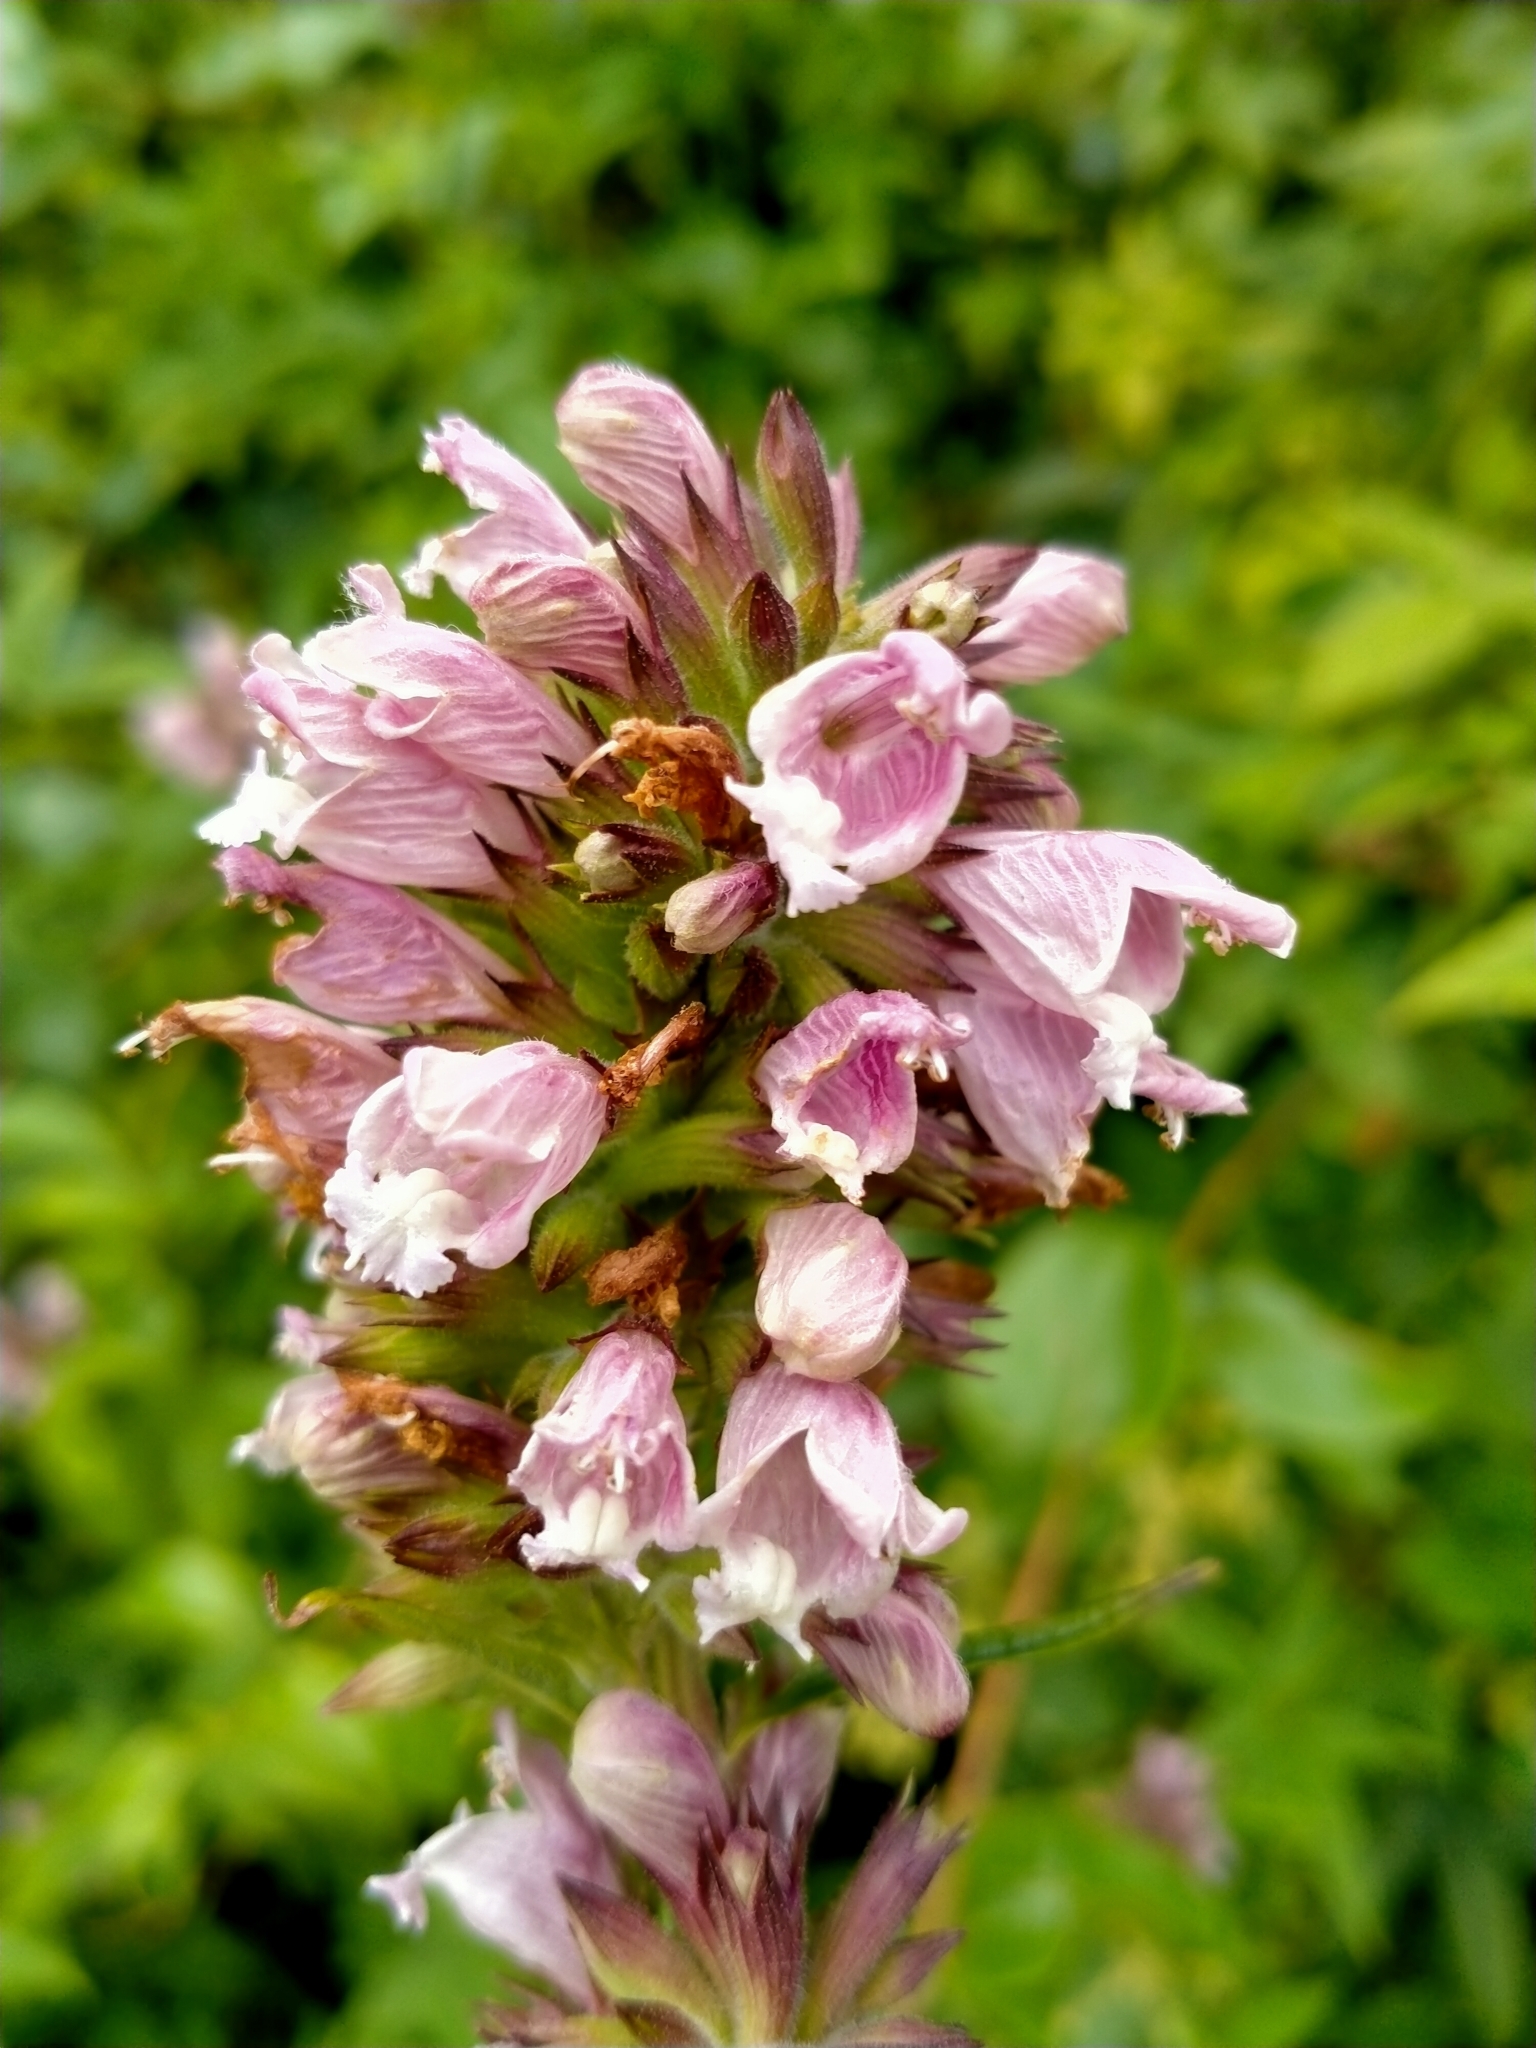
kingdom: Plantae
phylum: Tracheophyta
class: Magnoliopsida
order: Lamiales
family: Lamiaceae
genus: Cedronella
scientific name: Cedronella canariensis
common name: Canary islands balm
